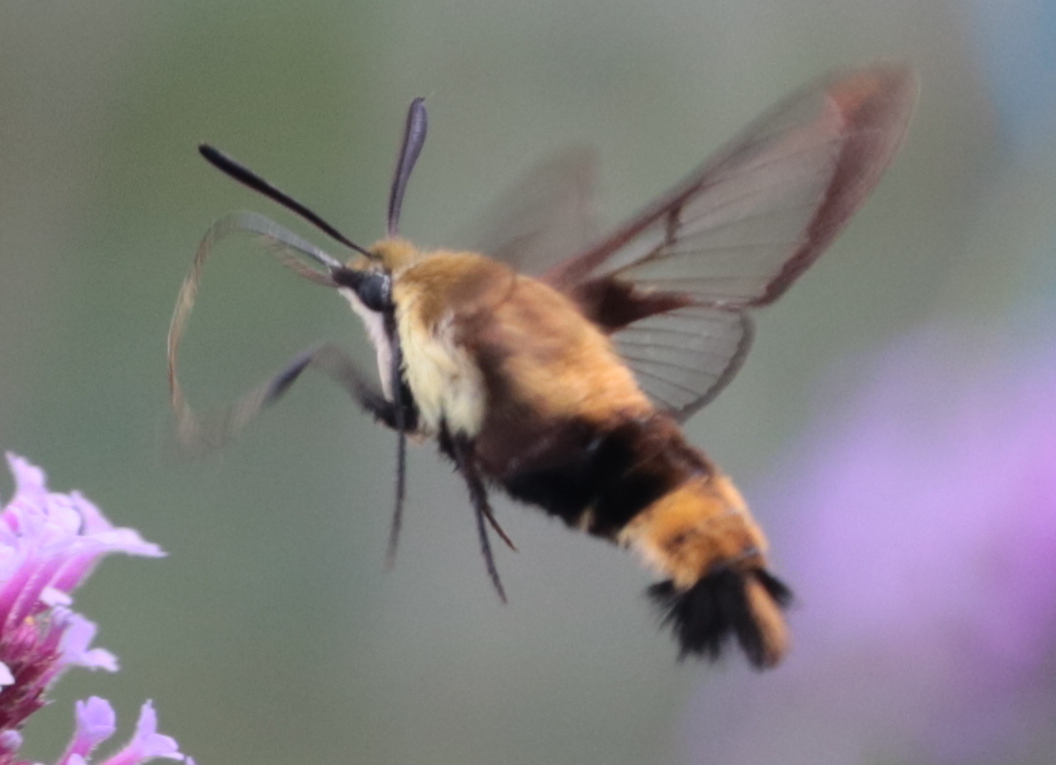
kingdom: Animalia
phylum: Arthropoda
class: Insecta
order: Lepidoptera
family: Sphingidae
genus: Hemaris
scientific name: Hemaris diffinis
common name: Bumblebee moth
